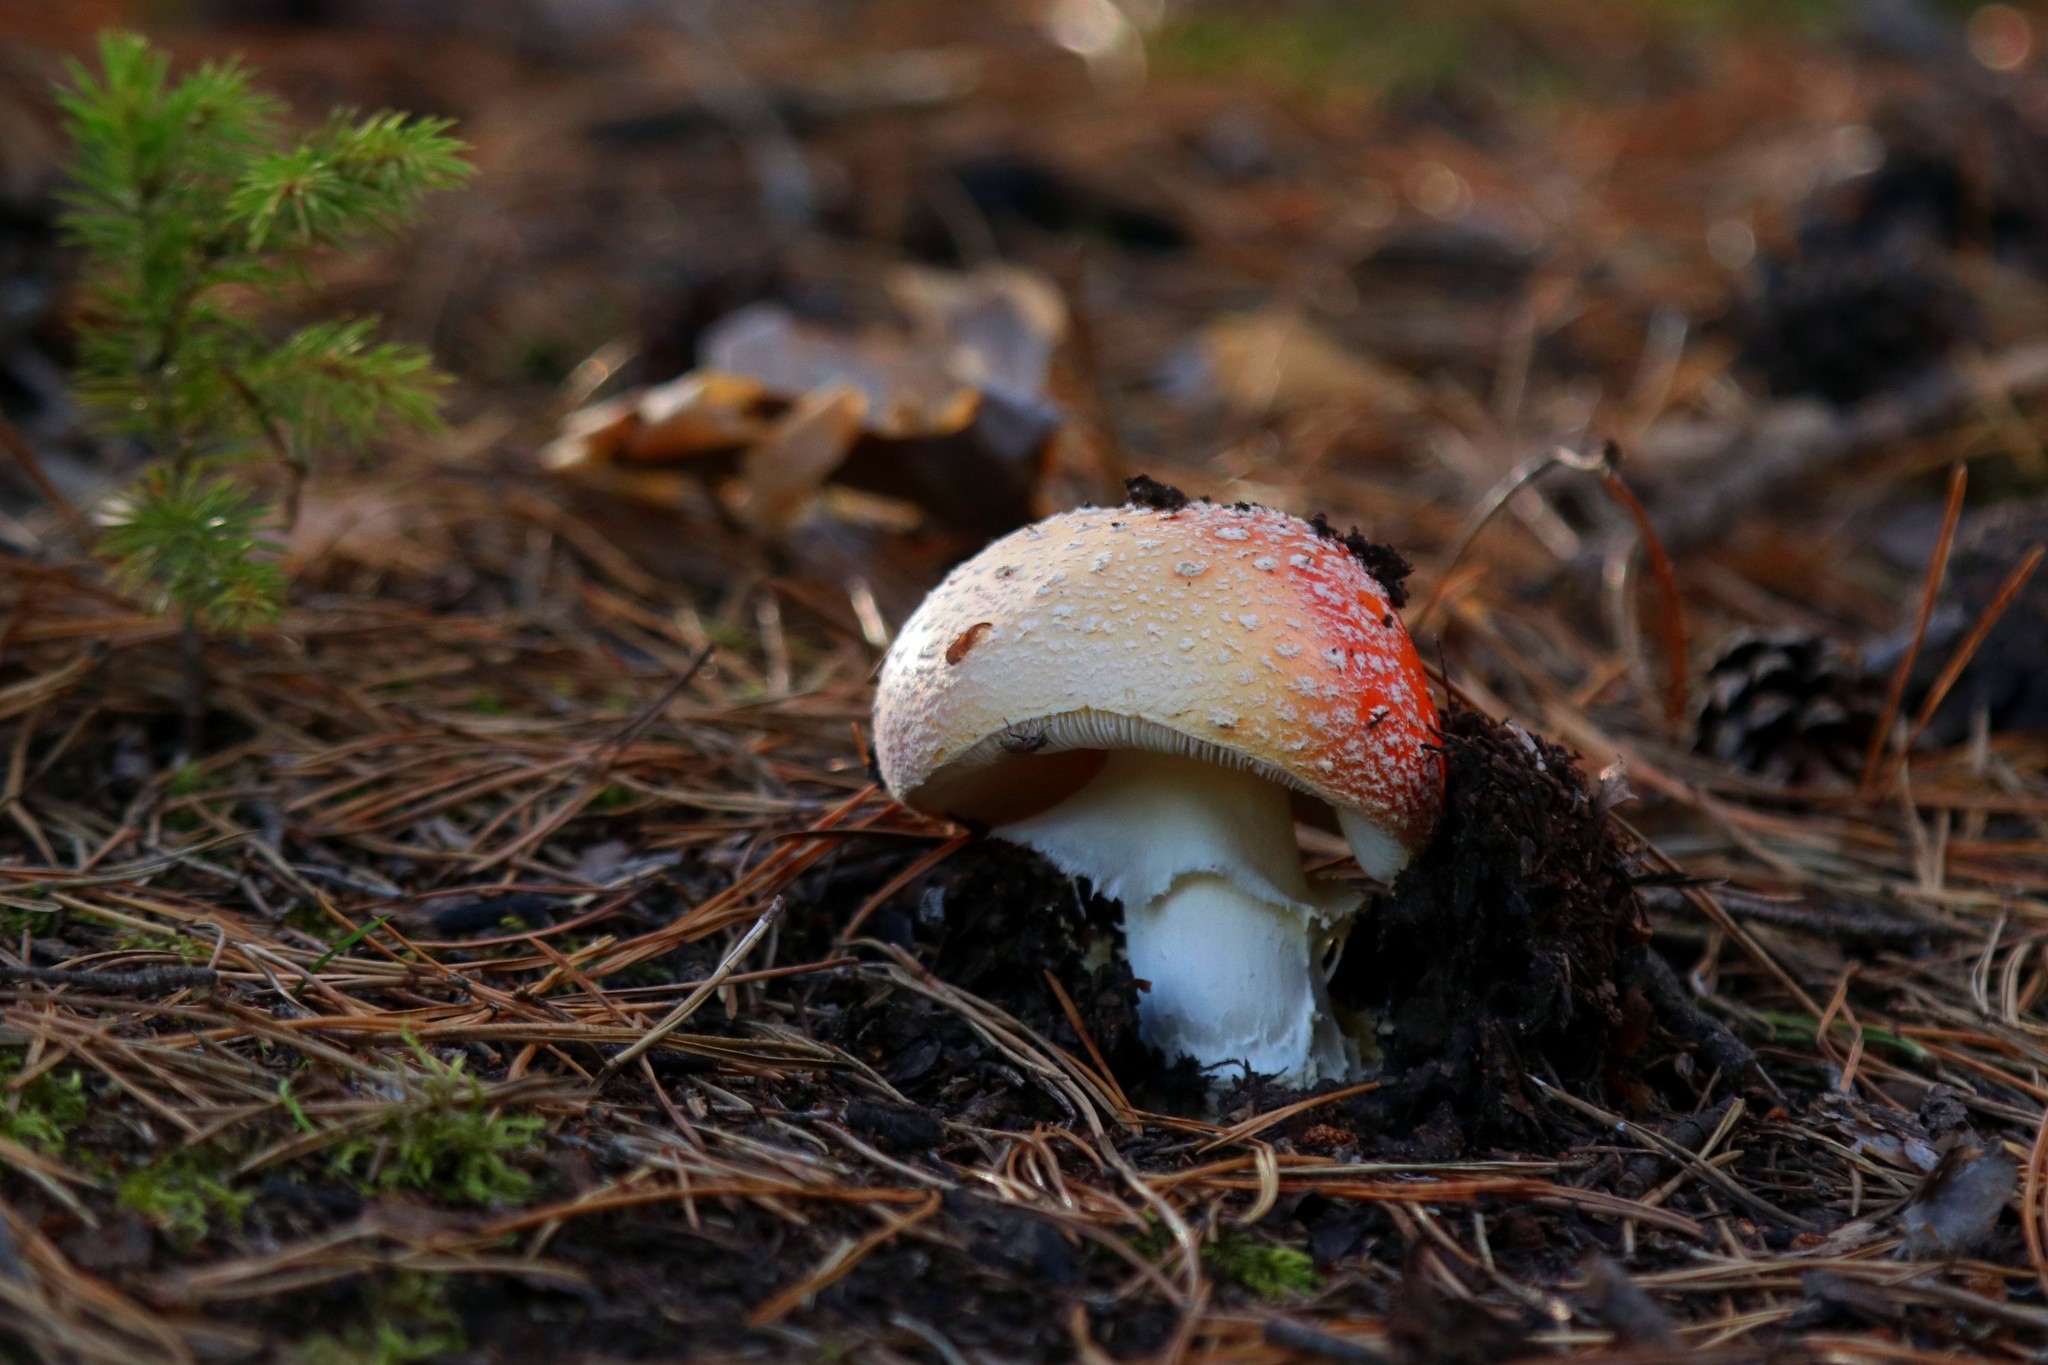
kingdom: Fungi
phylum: Basidiomycota
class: Agaricomycetes
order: Agaricales
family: Amanitaceae
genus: Amanita
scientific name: Amanita muscaria
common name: Fly agaric
